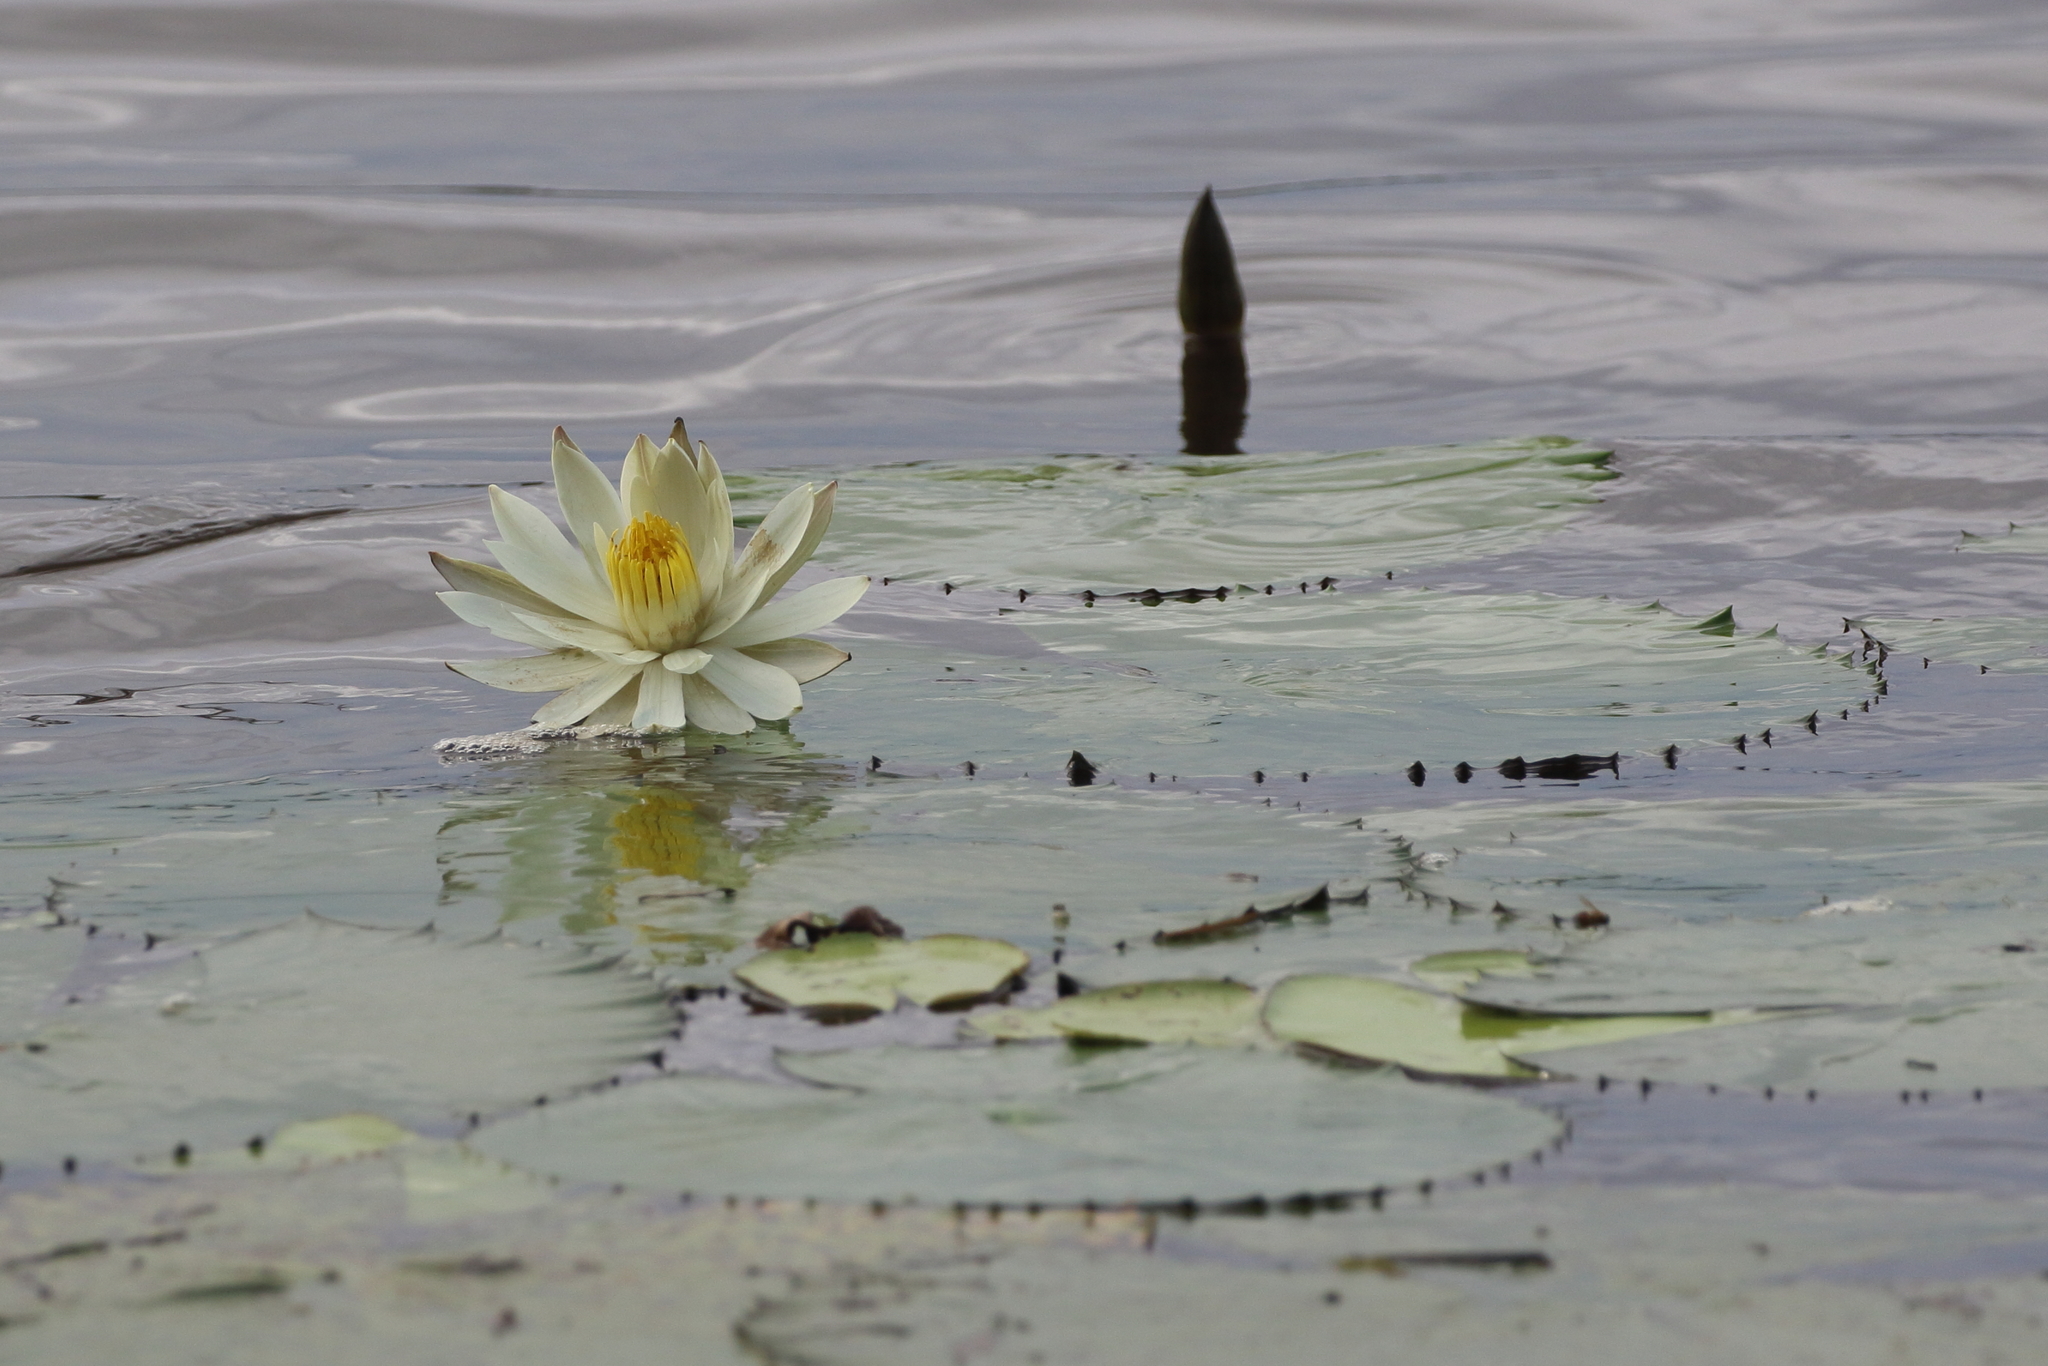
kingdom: Plantae
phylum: Tracheophyta
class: Magnoliopsida
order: Nymphaeales
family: Nymphaeaceae
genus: Nymphaea
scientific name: Nymphaea pubescens
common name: Hairy water lily
